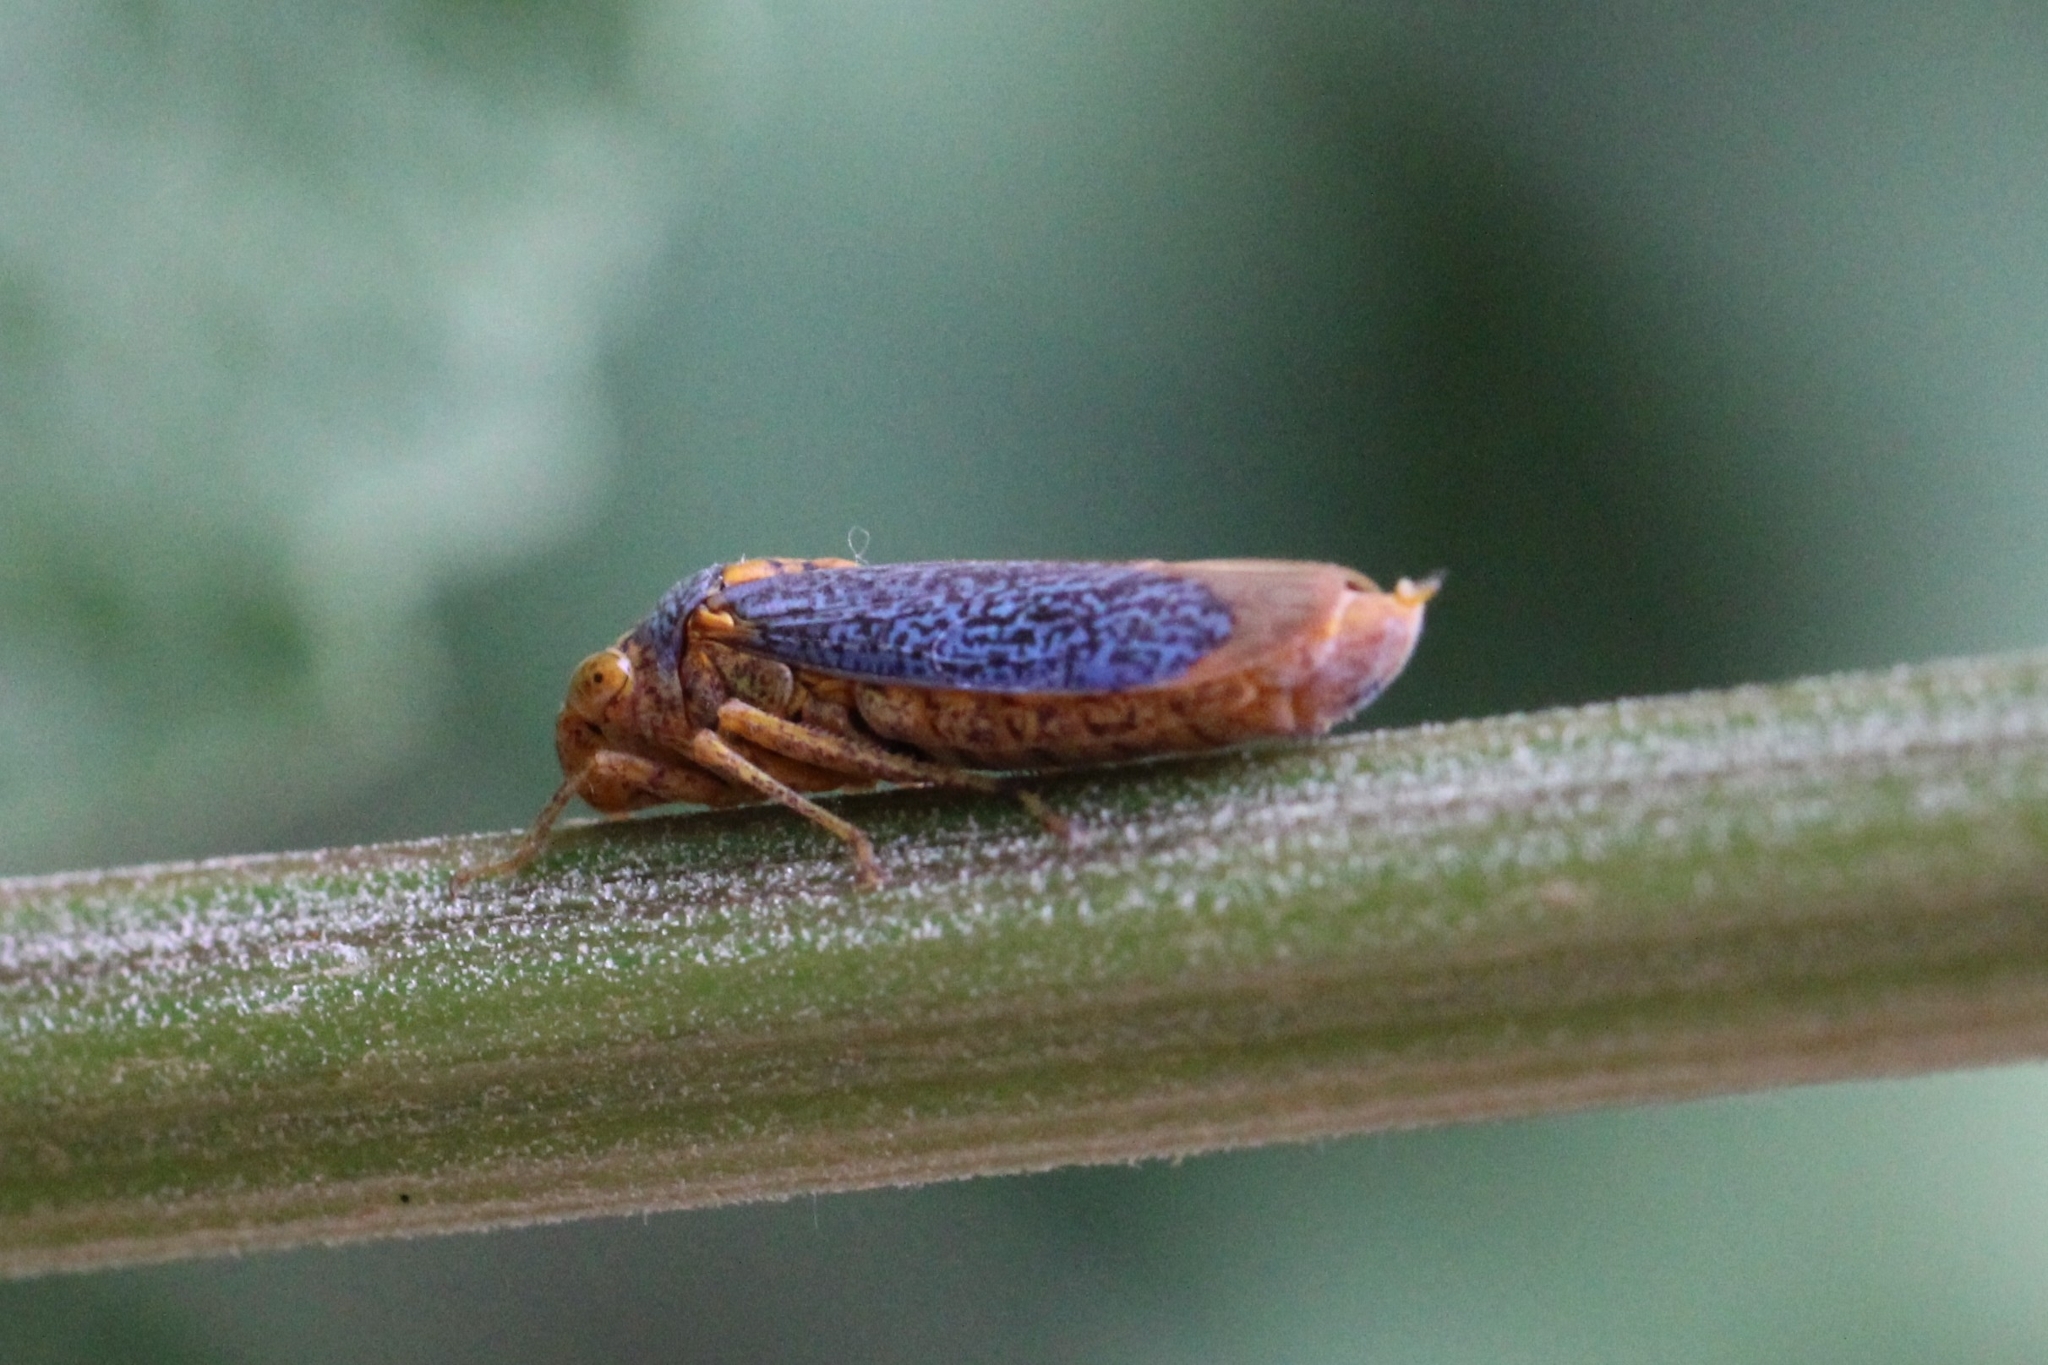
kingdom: Animalia
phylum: Arthropoda
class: Insecta
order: Hemiptera
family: Cicadellidae
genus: Oncometopia
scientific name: Oncometopia orbona
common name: Broad-headed sharpshooter
